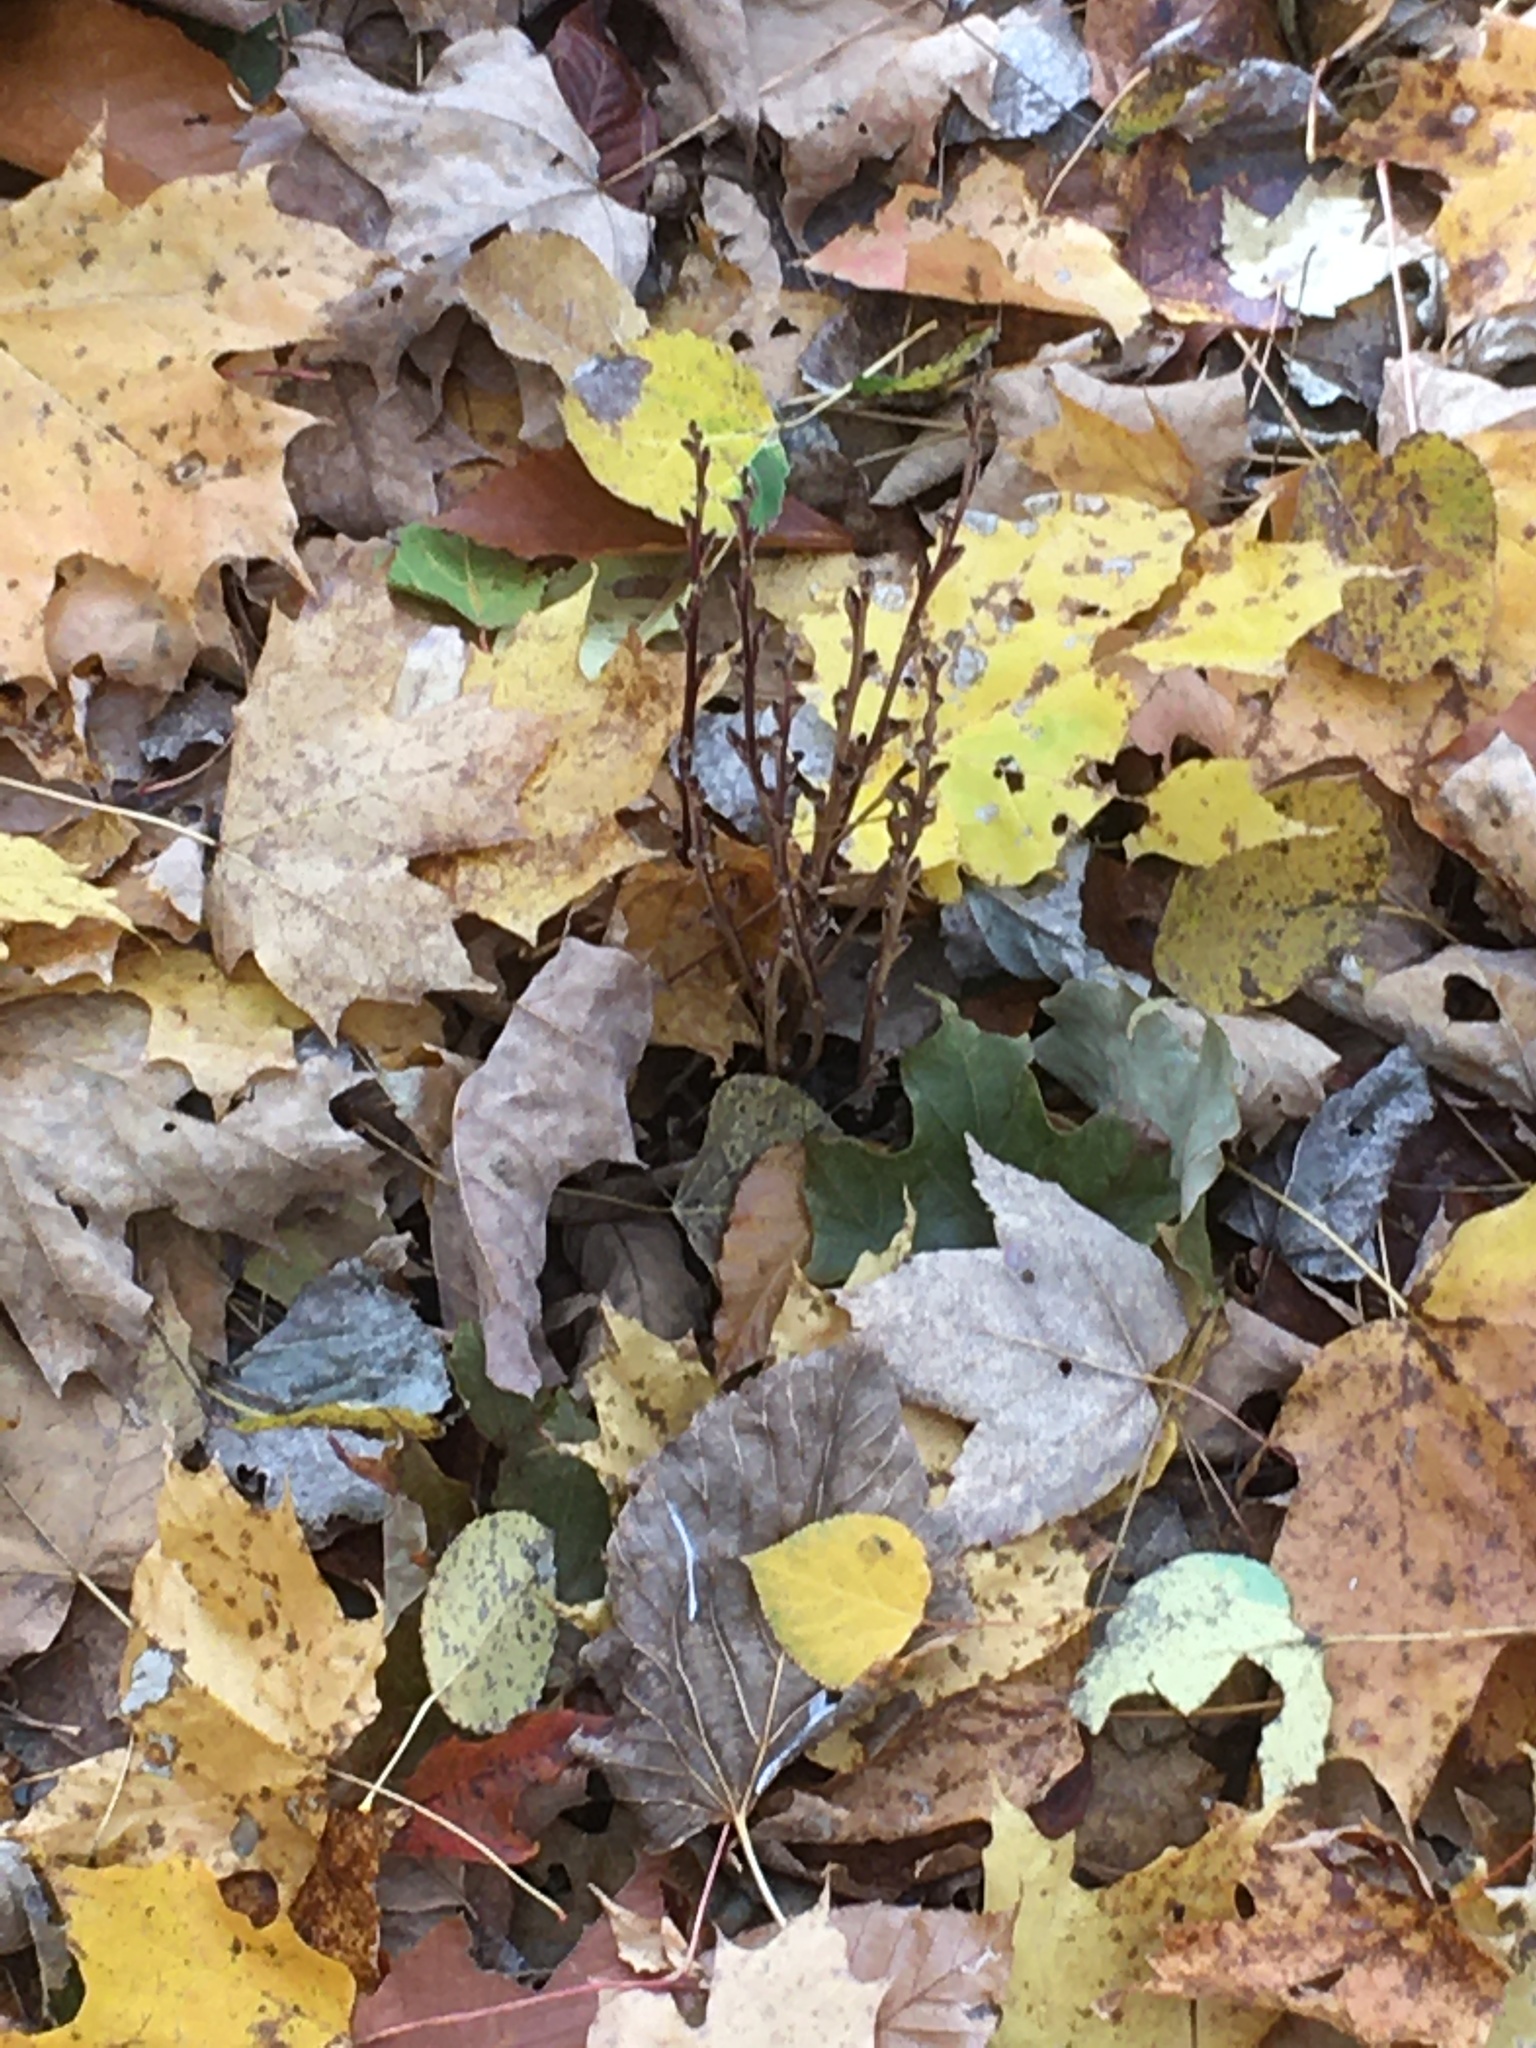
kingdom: Plantae
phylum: Tracheophyta
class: Magnoliopsida
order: Lamiales
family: Orobanchaceae
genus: Epifagus
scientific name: Epifagus virginiana
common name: Beechdrops
